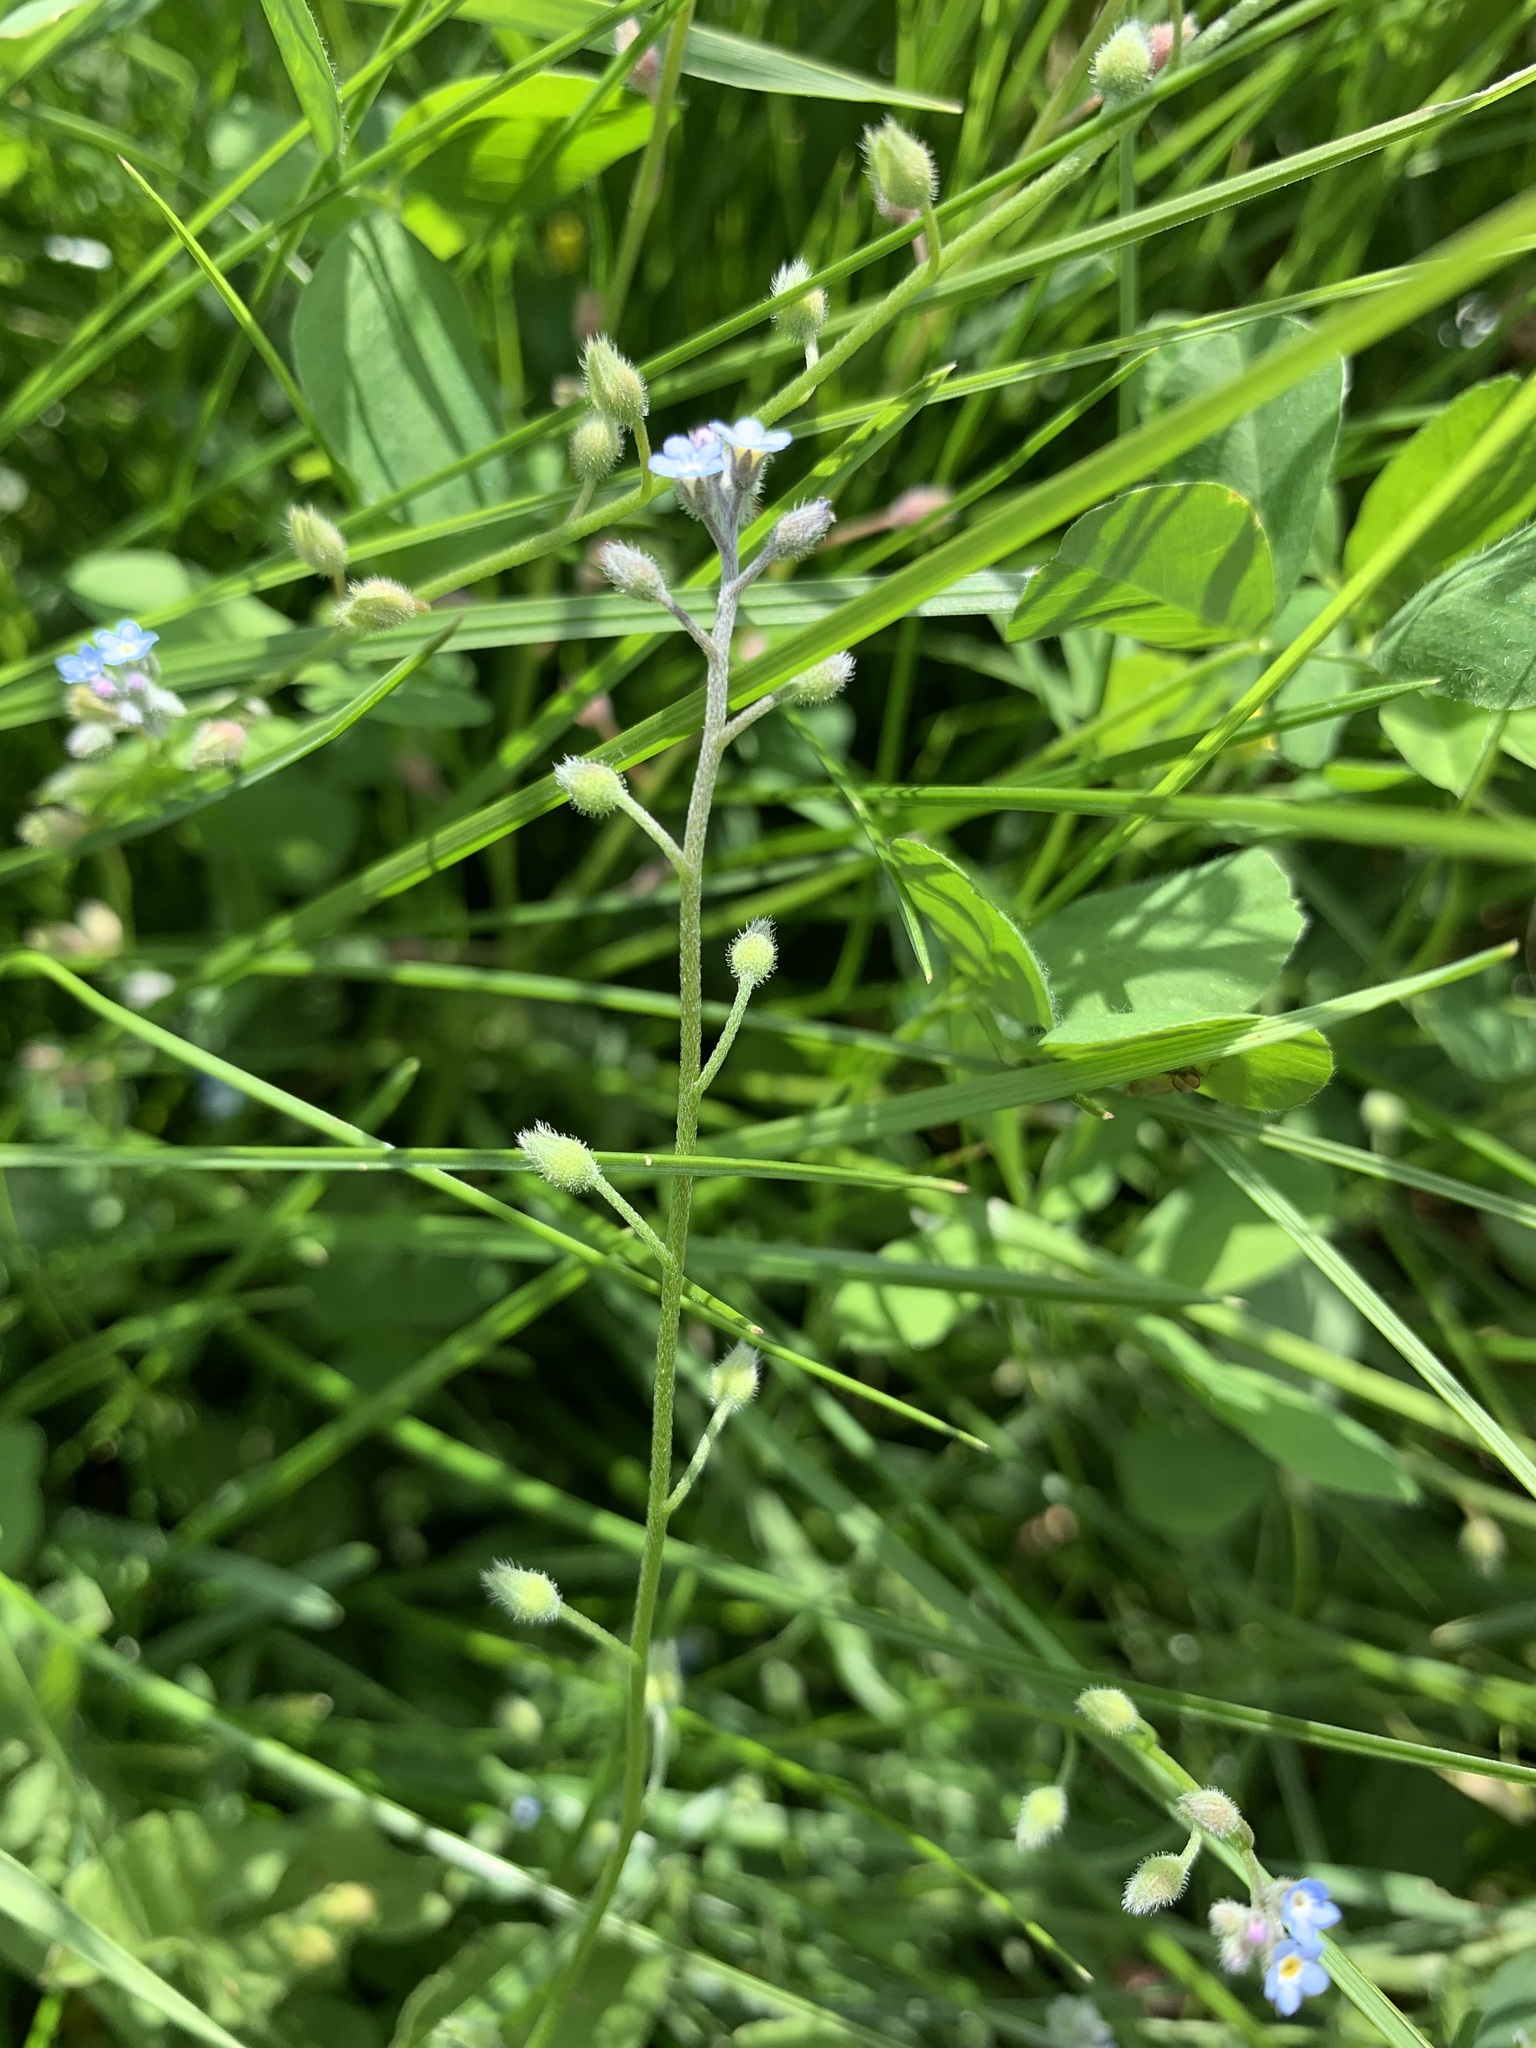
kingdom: Plantae
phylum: Tracheophyta
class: Magnoliopsida
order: Boraginales
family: Boraginaceae
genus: Myosotis
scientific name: Myosotis arvensis
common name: Field forget-me-not
